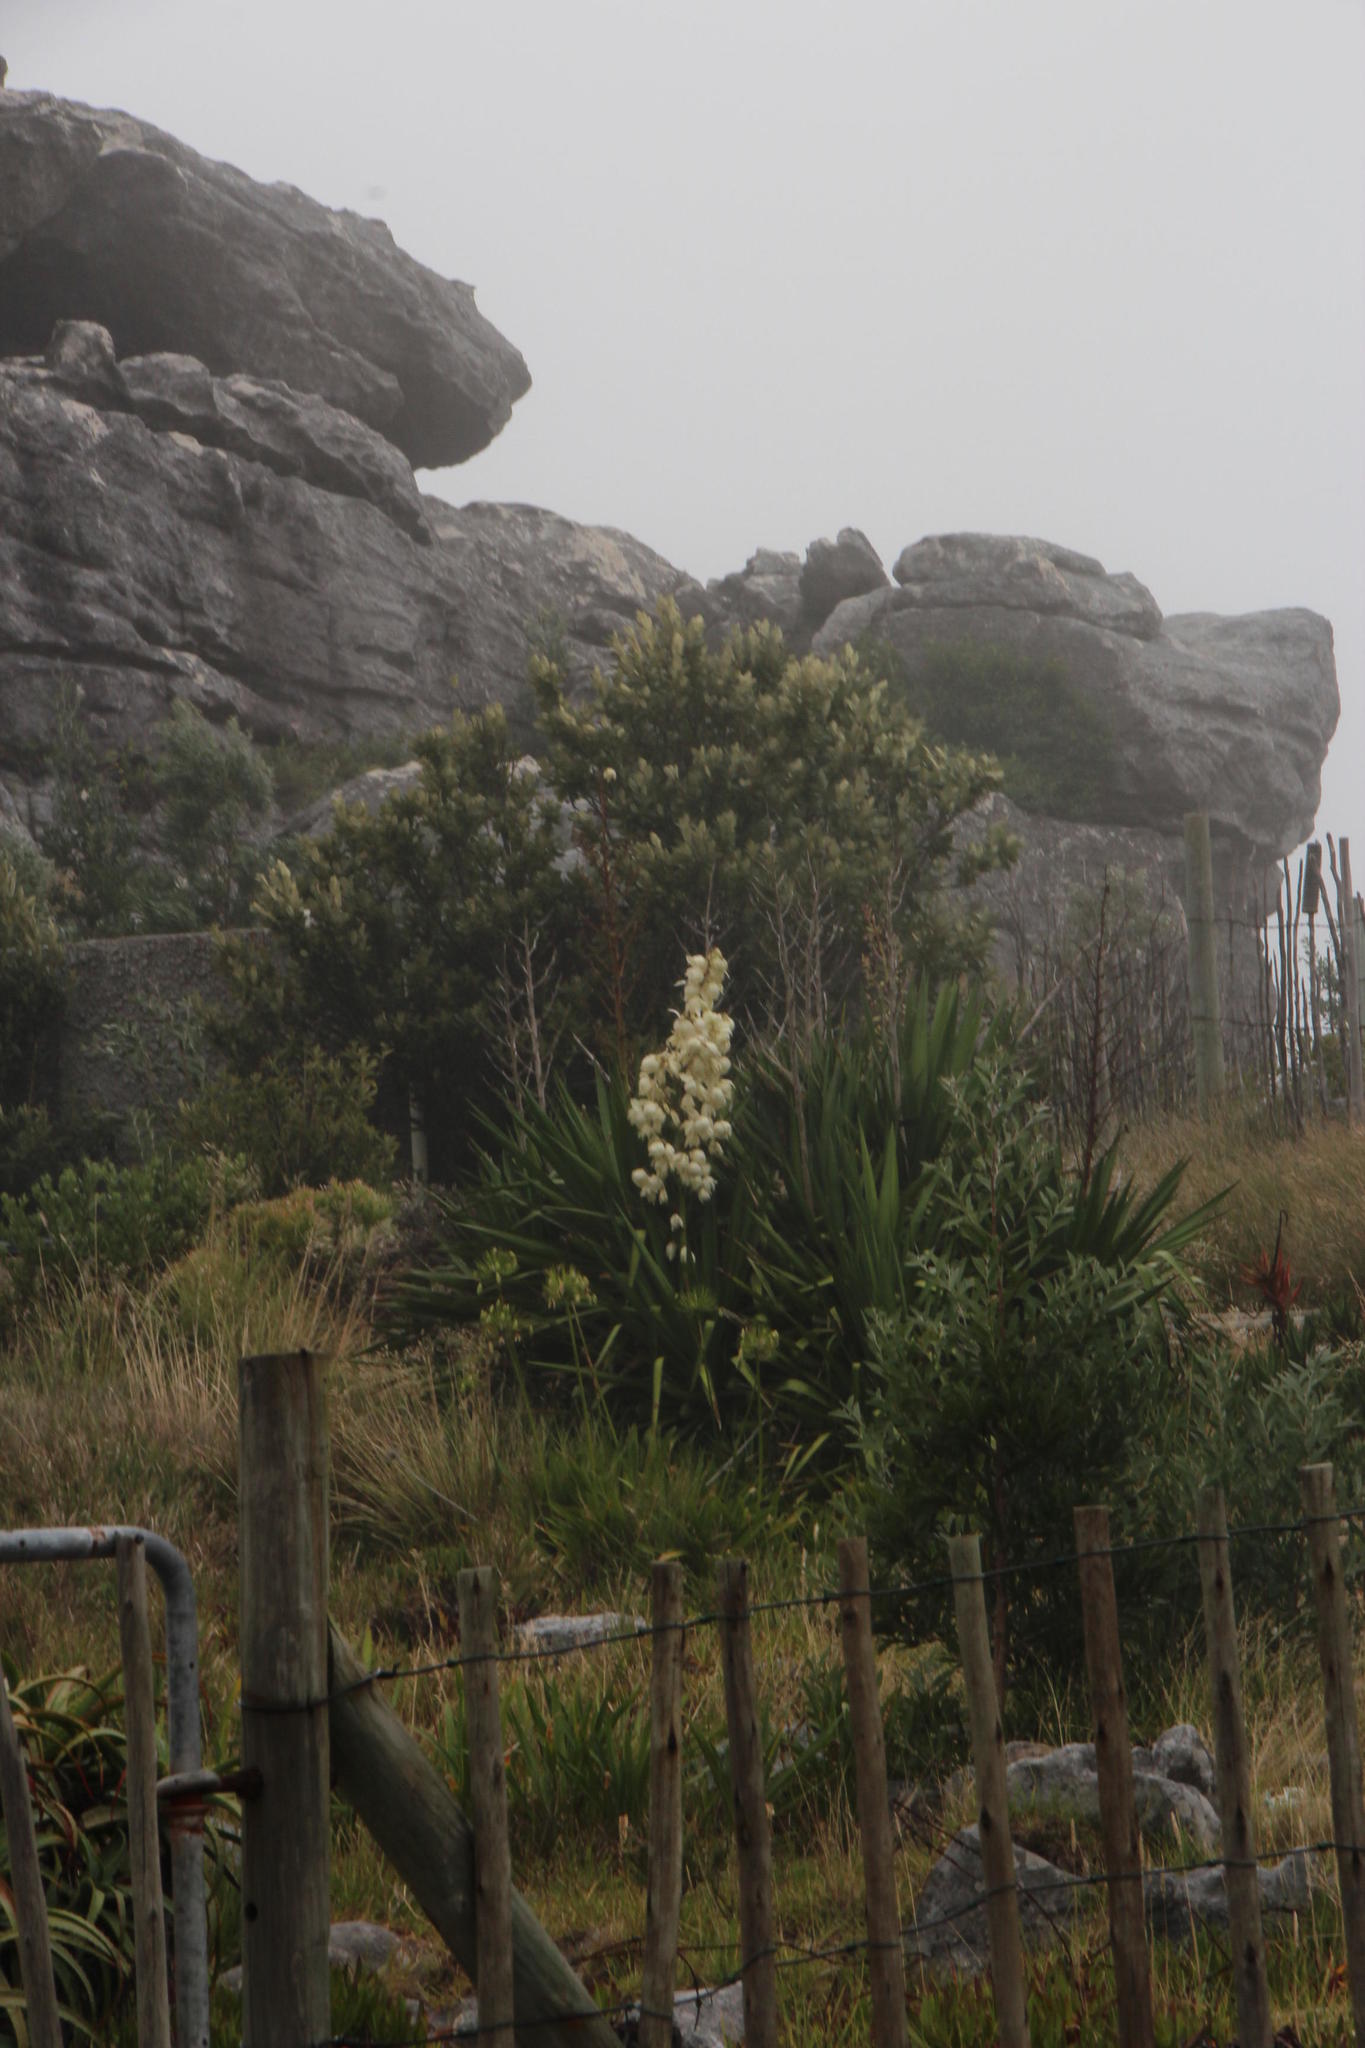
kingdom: Plantae
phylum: Tracheophyta
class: Liliopsida
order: Asparagales
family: Asparagaceae
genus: Yucca
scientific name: Yucca gloriosa
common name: Spanish-dagger
